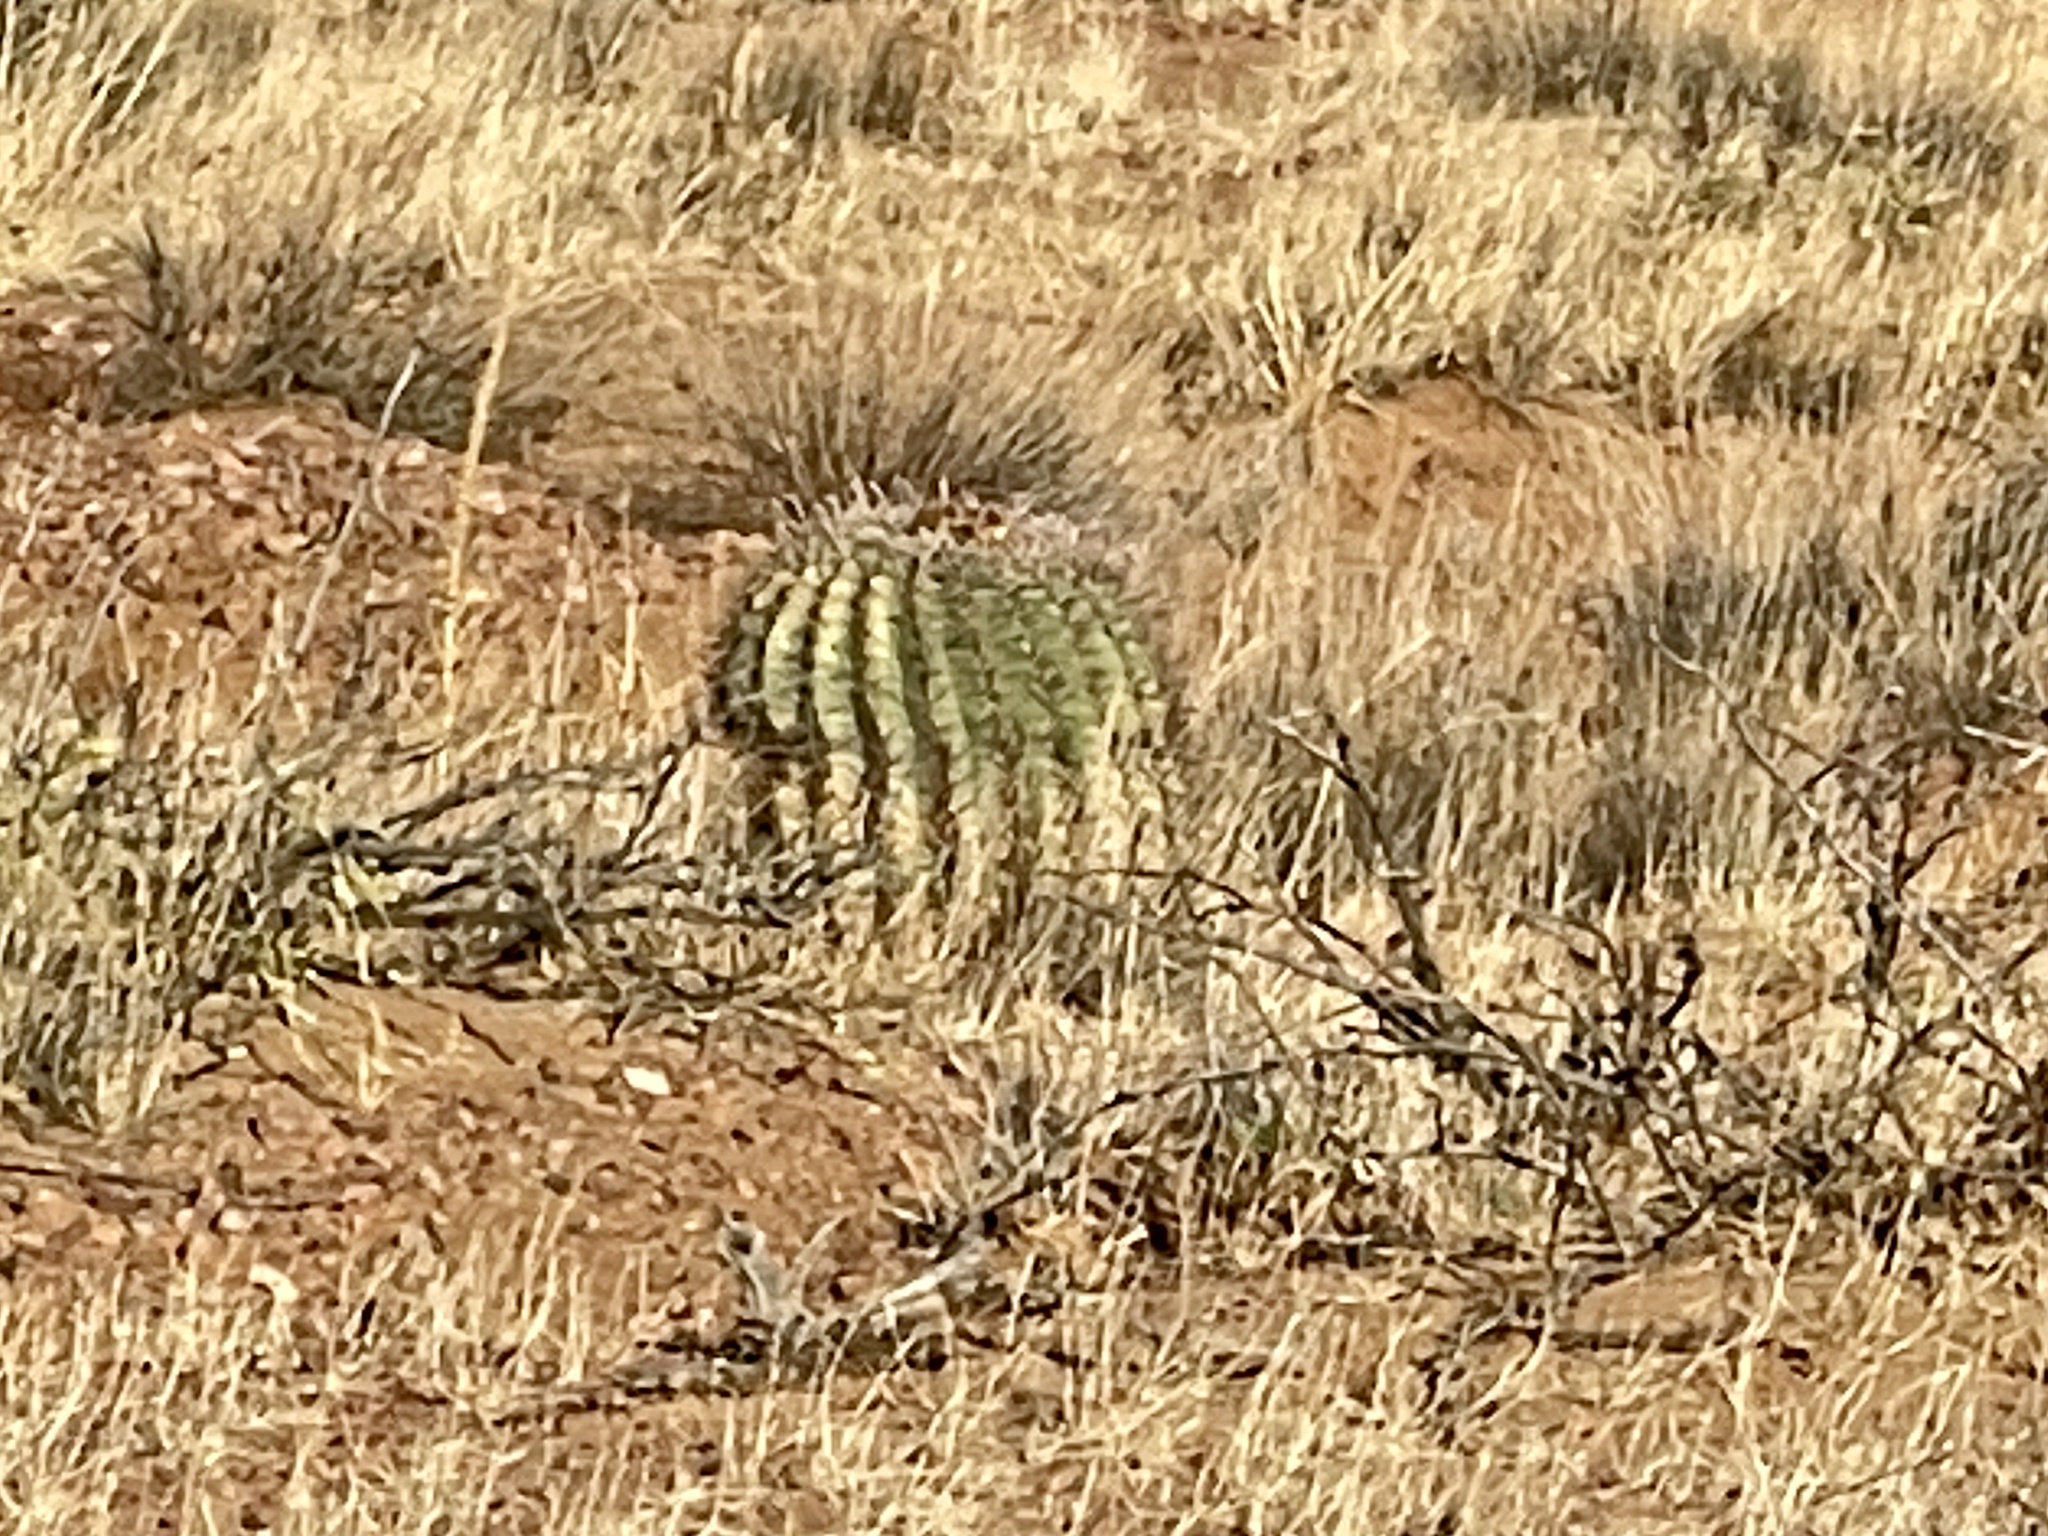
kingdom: Plantae
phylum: Tracheophyta
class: Magnoliopsida
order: Caryophyllales
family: Cactaceae
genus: Ferocactus
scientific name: Ferocactus wislizeni
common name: Candy barrel cactus
